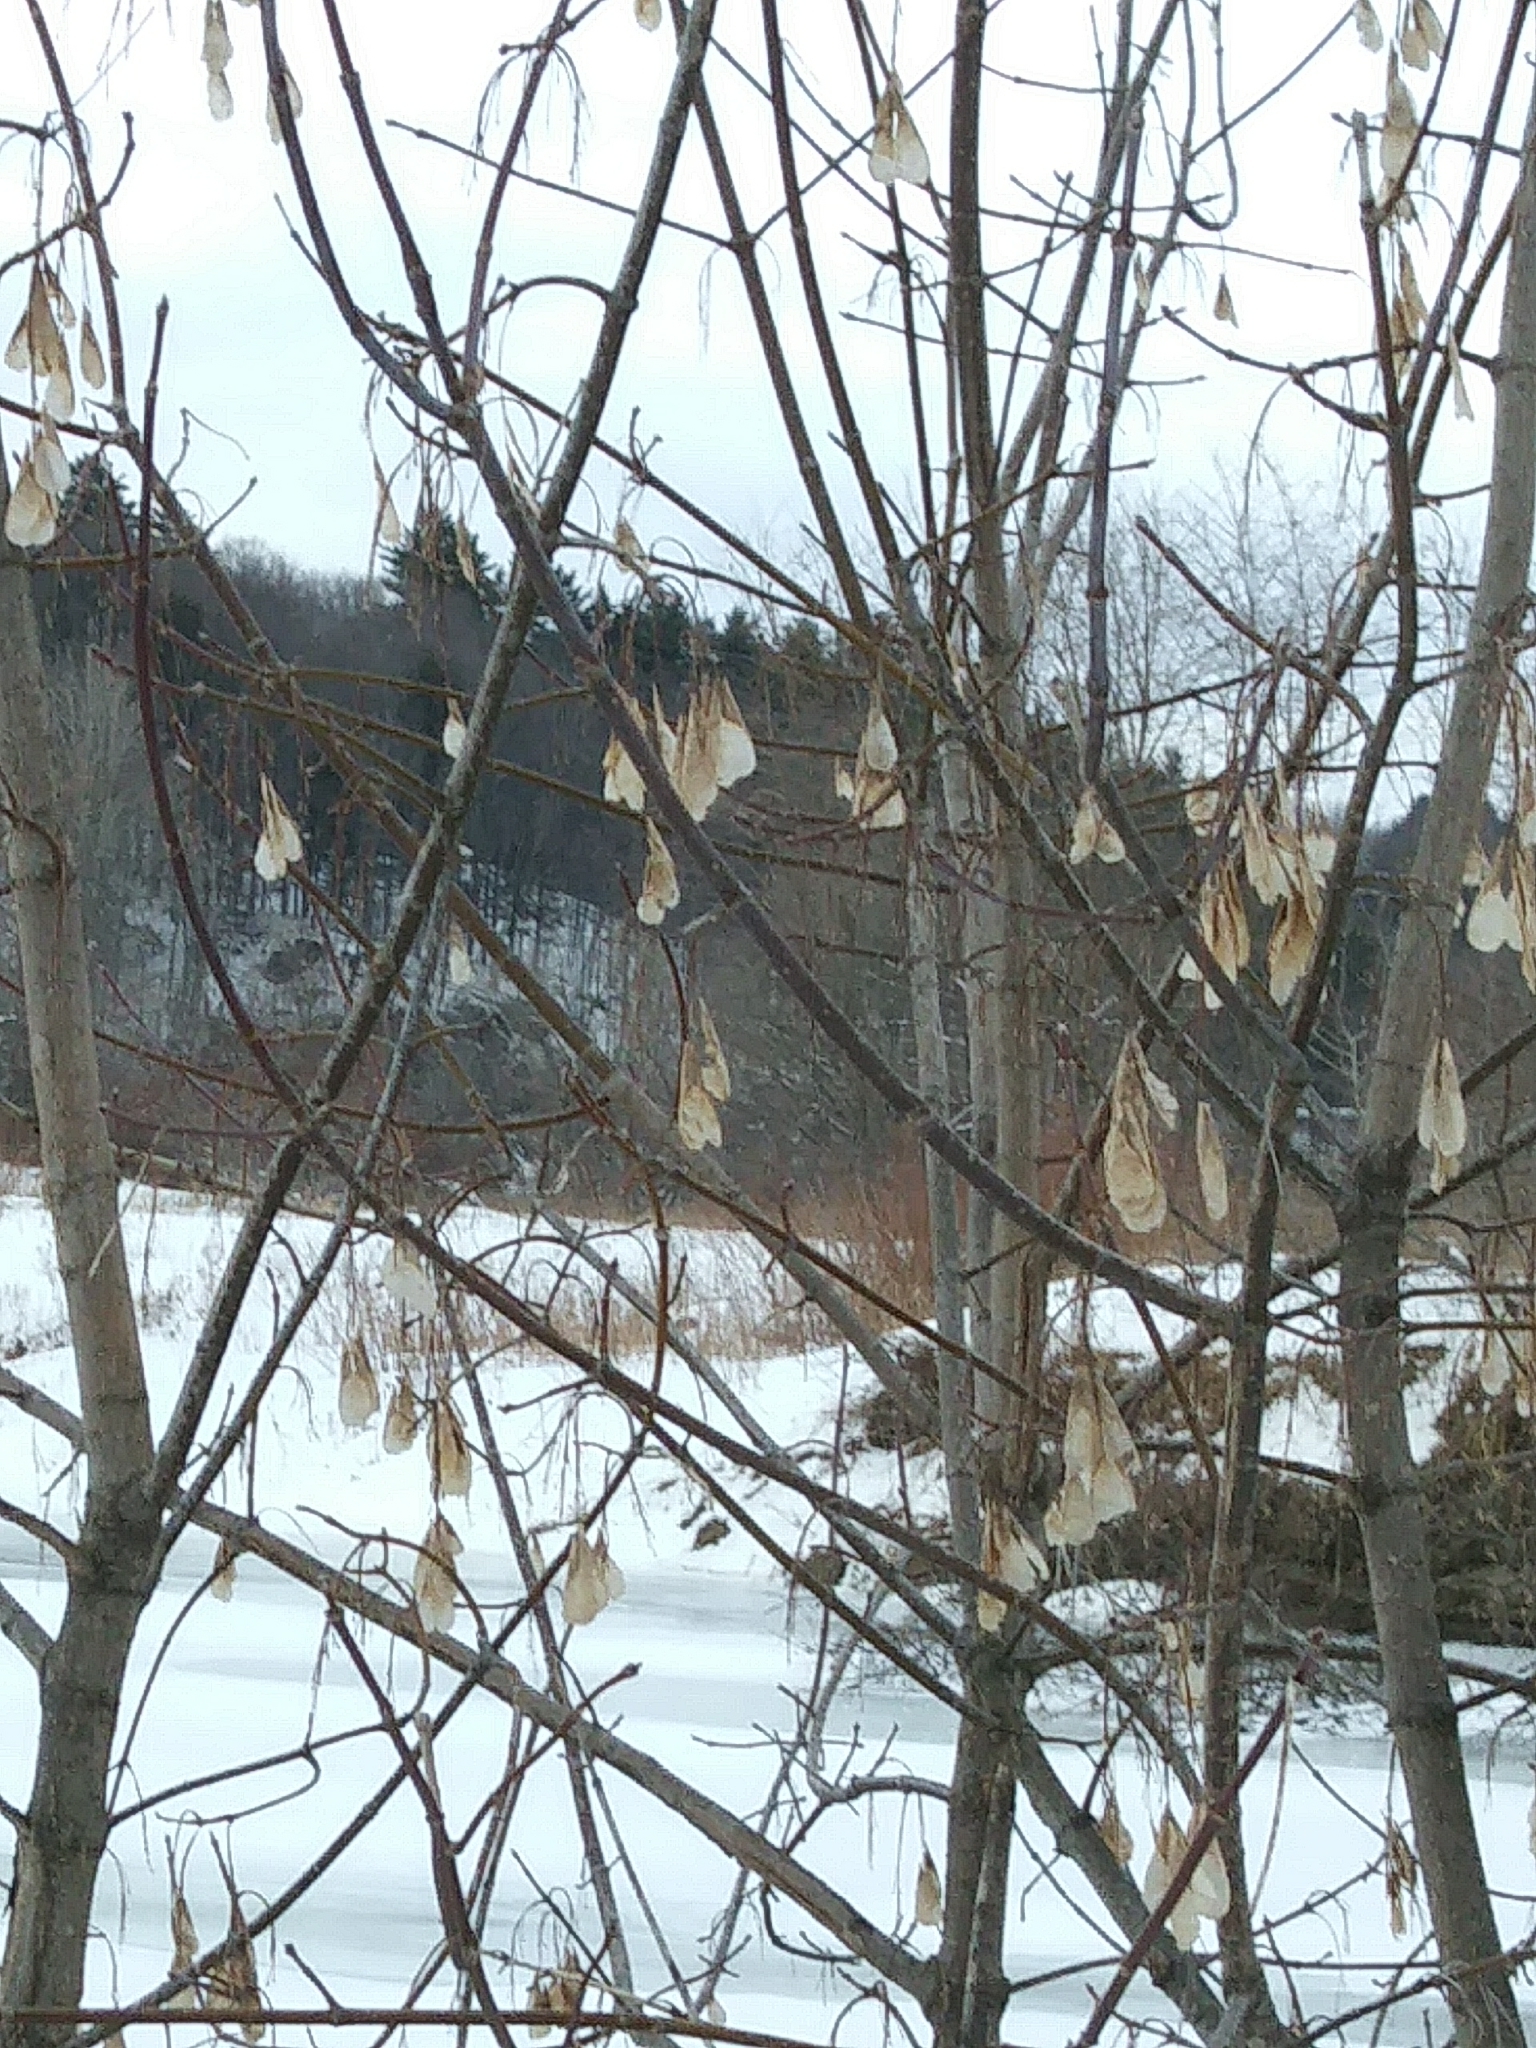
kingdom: Plantae
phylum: Tracheophyta
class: Magnoliopsida
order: Sapindales
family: Sapindaceae
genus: Acer
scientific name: Acer negundo
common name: Ashleaf maple
